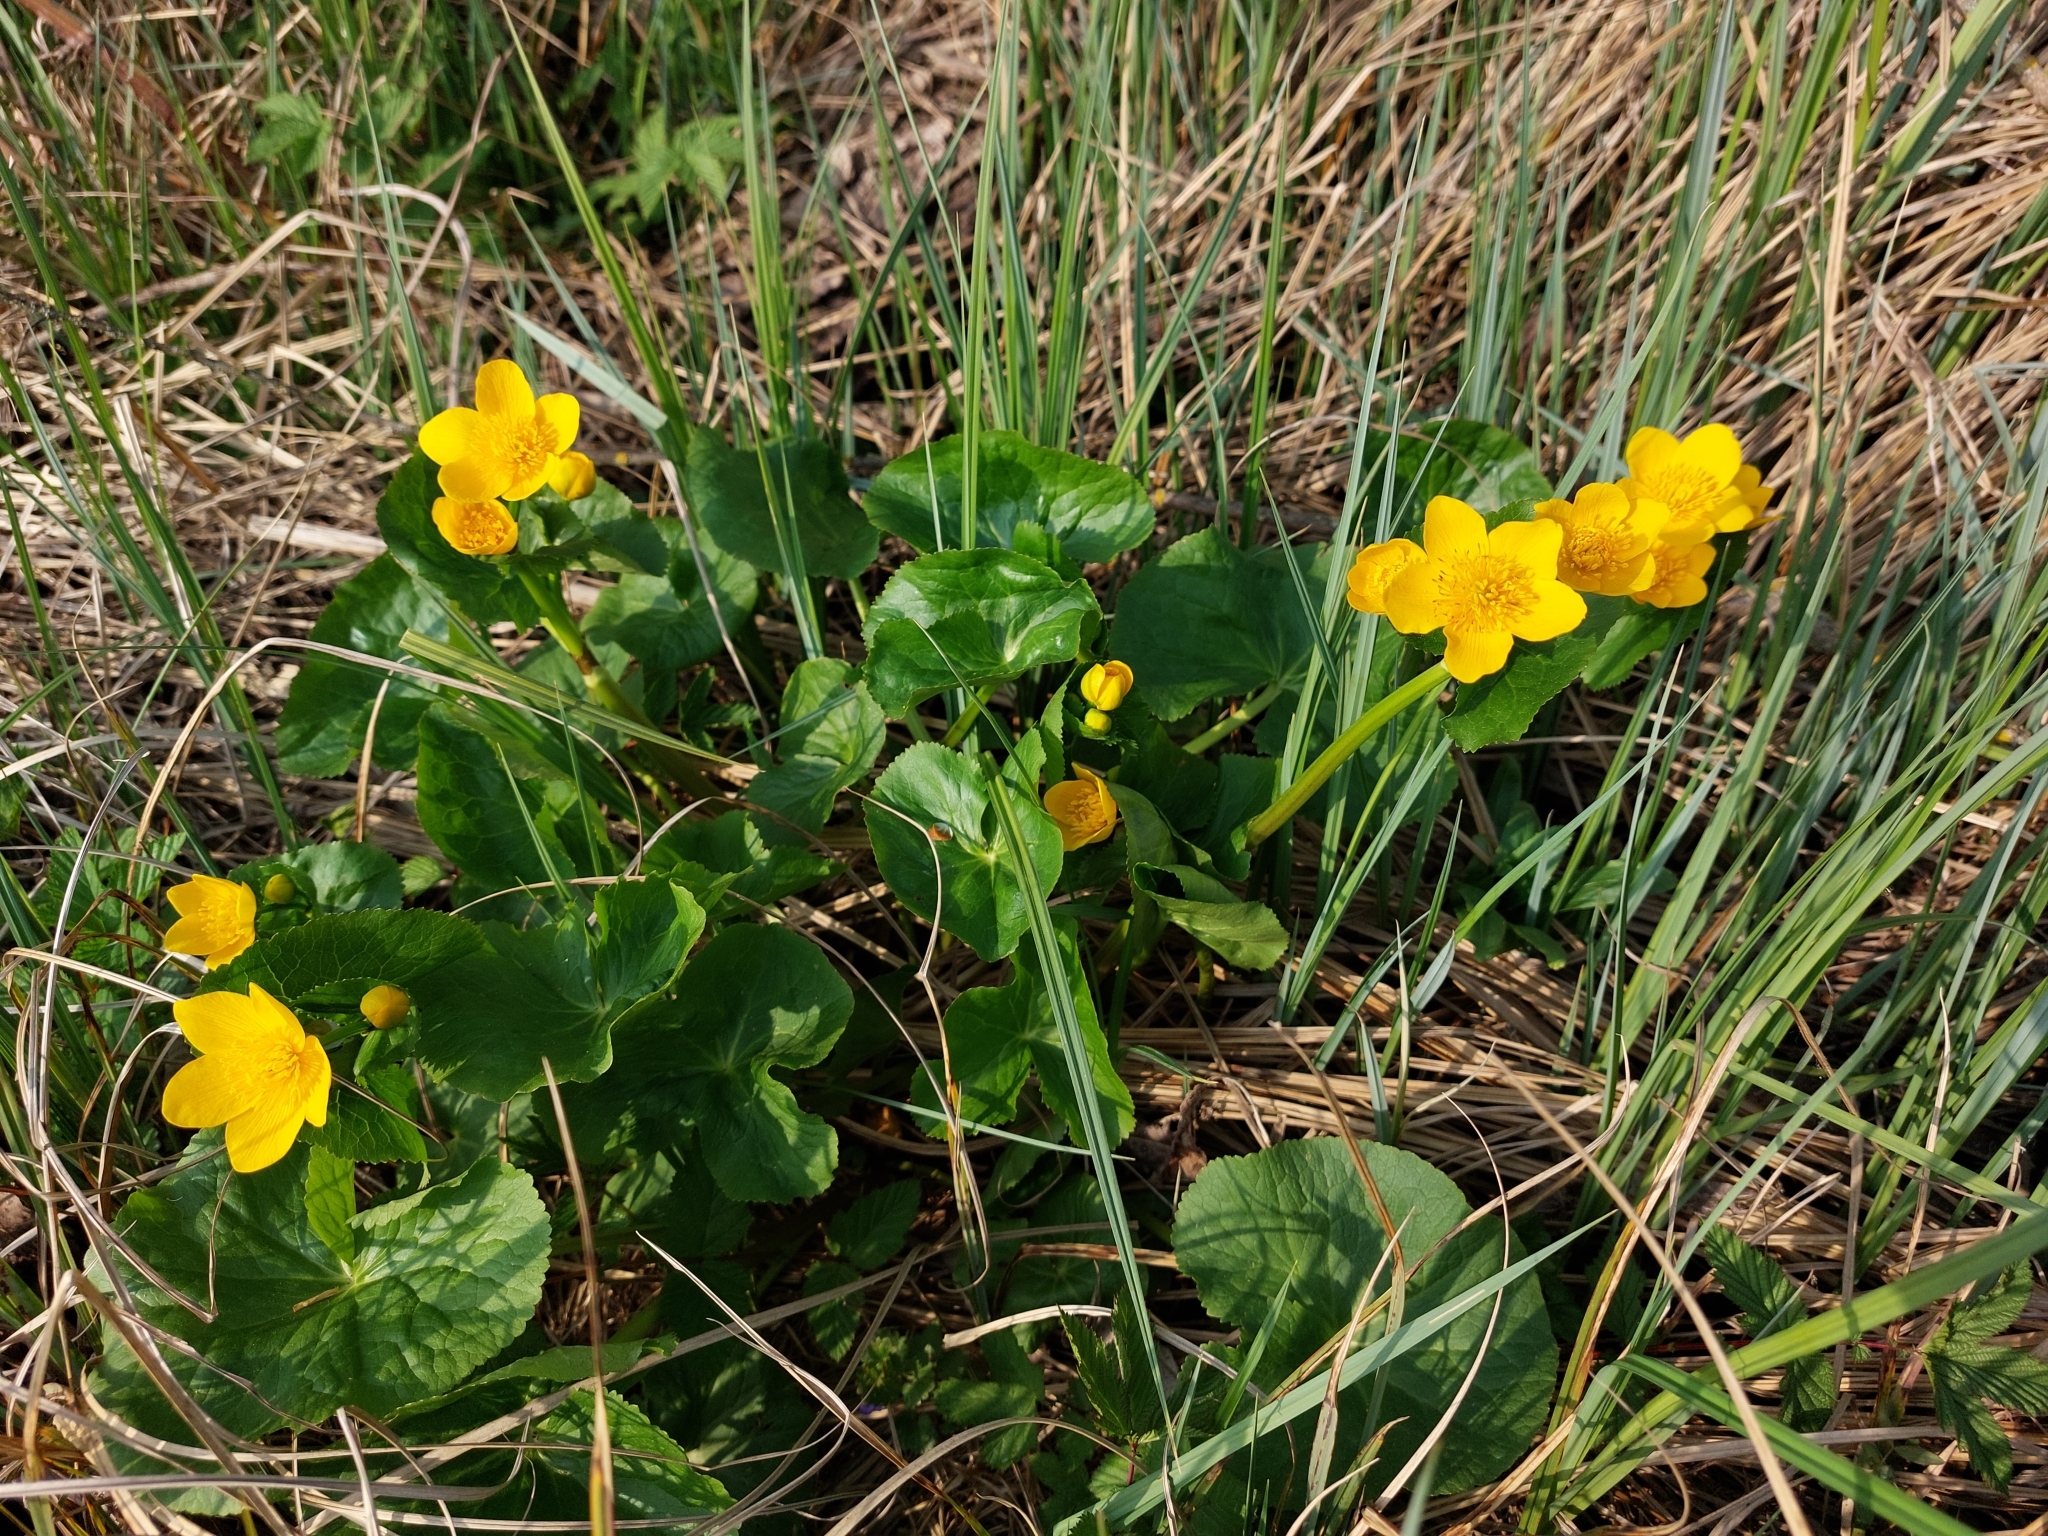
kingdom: Plantae
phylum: Tracheophyta
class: Magnoliopsida
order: Ranunculales
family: Ranunculaceae
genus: Caltha
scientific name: Caltha palustris
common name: Marsh marigold
